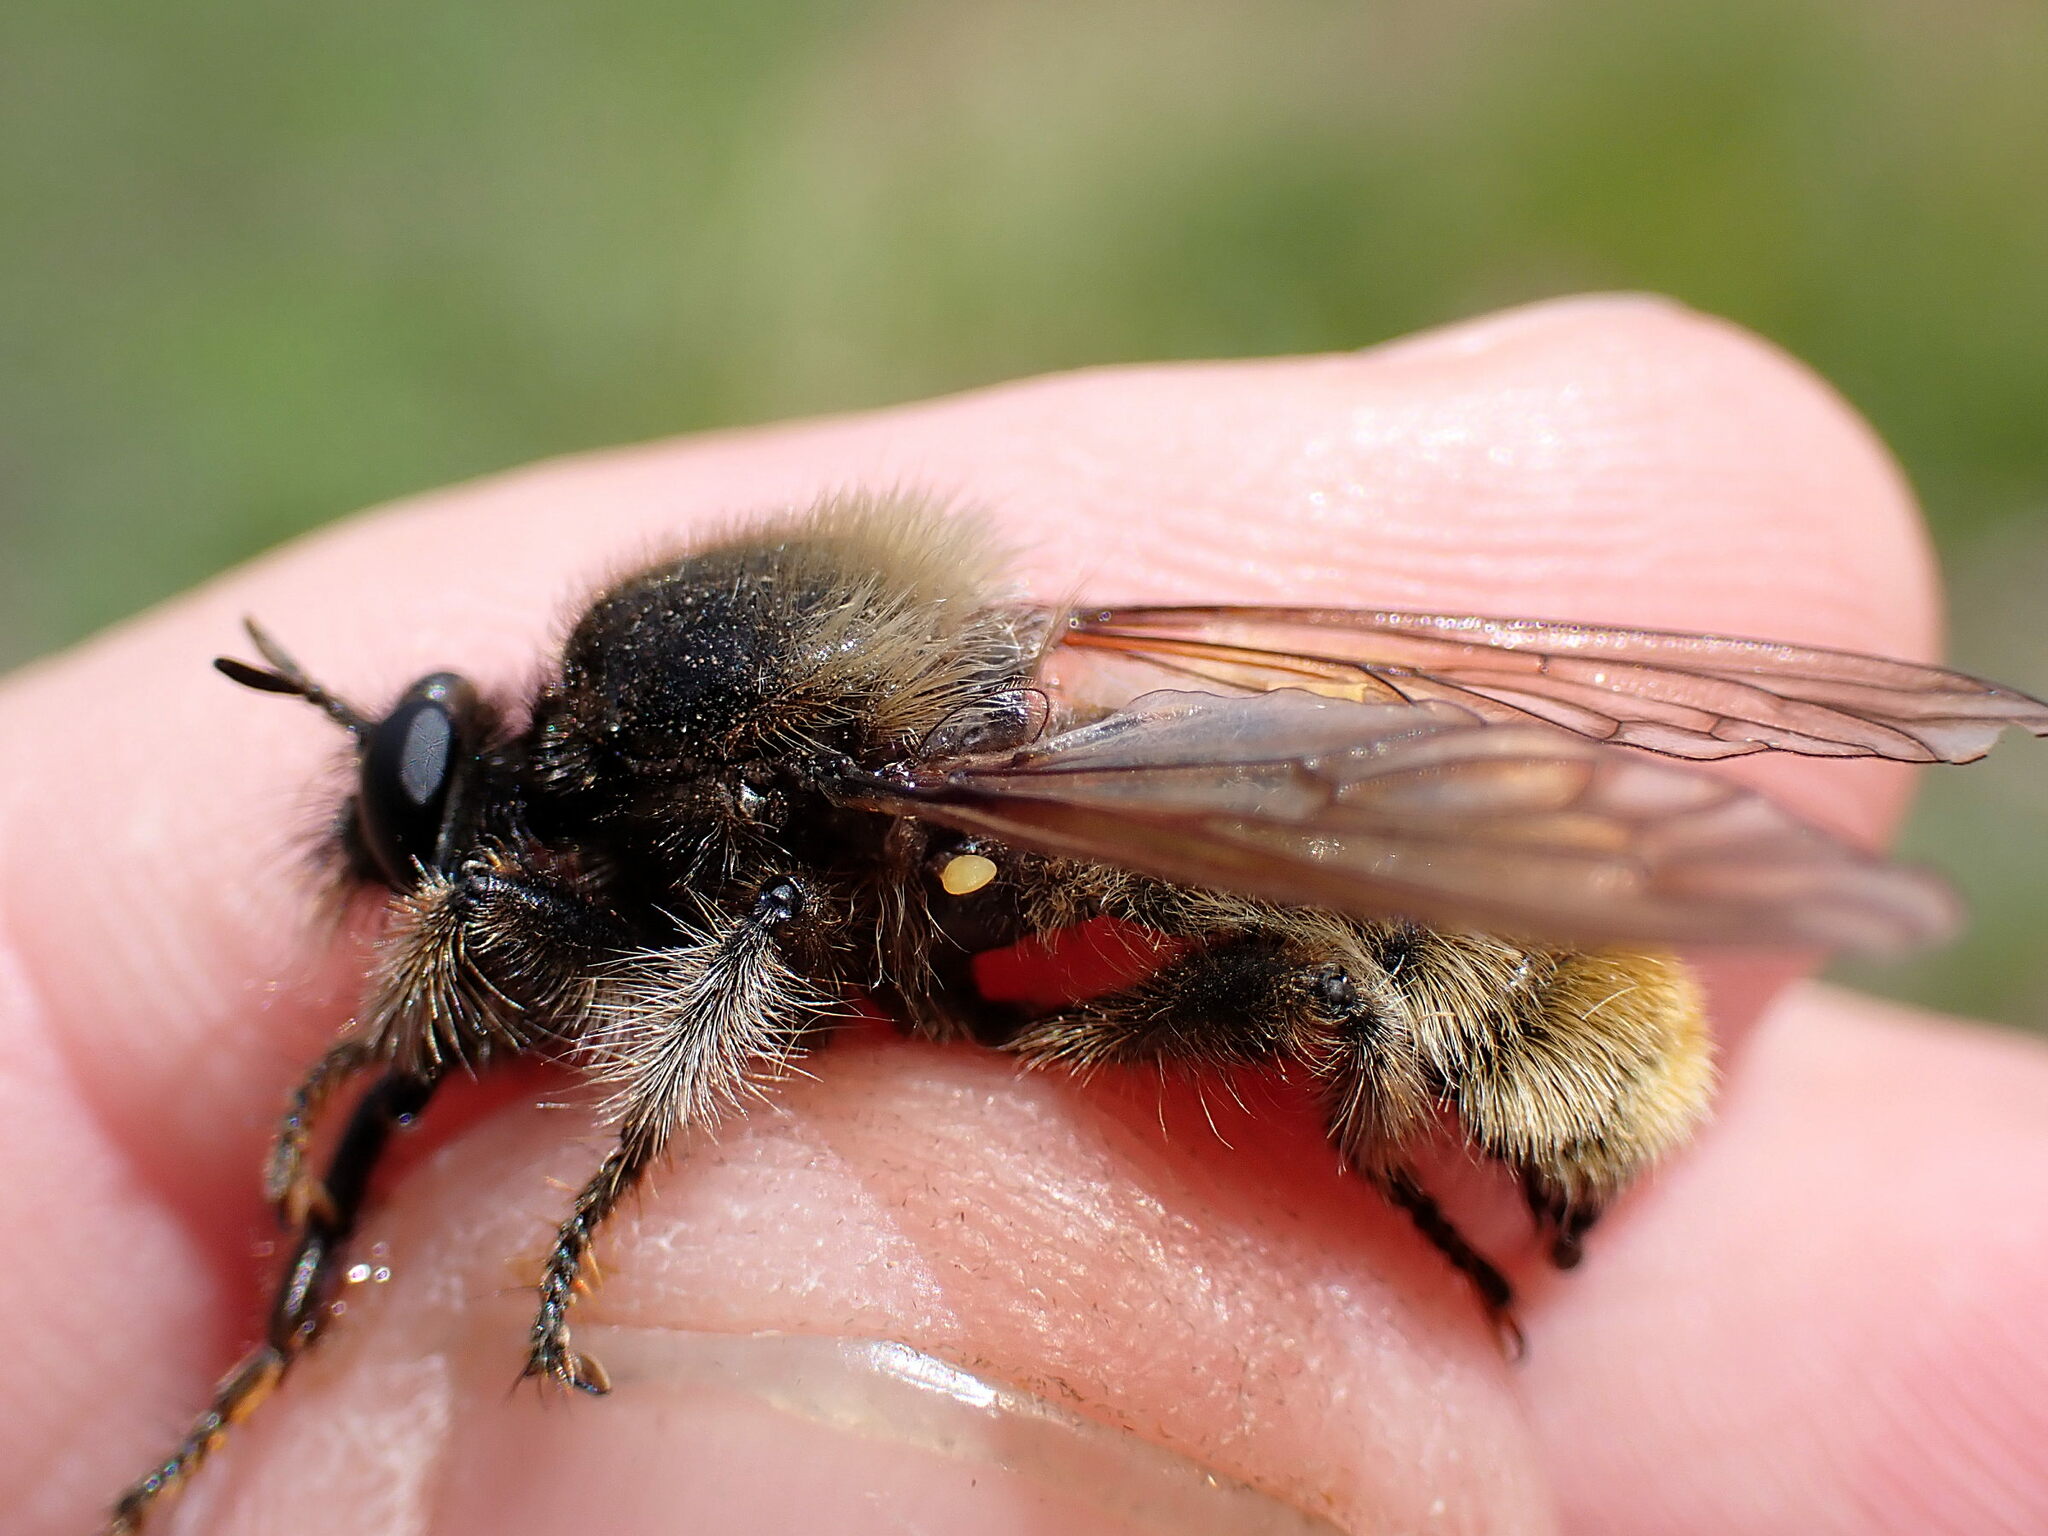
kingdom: Animalia
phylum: Arthropoda
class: Insecta
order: Diptera
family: Asilidae
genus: Laphria
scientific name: Laphria flava
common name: Bumblebee robberfly
